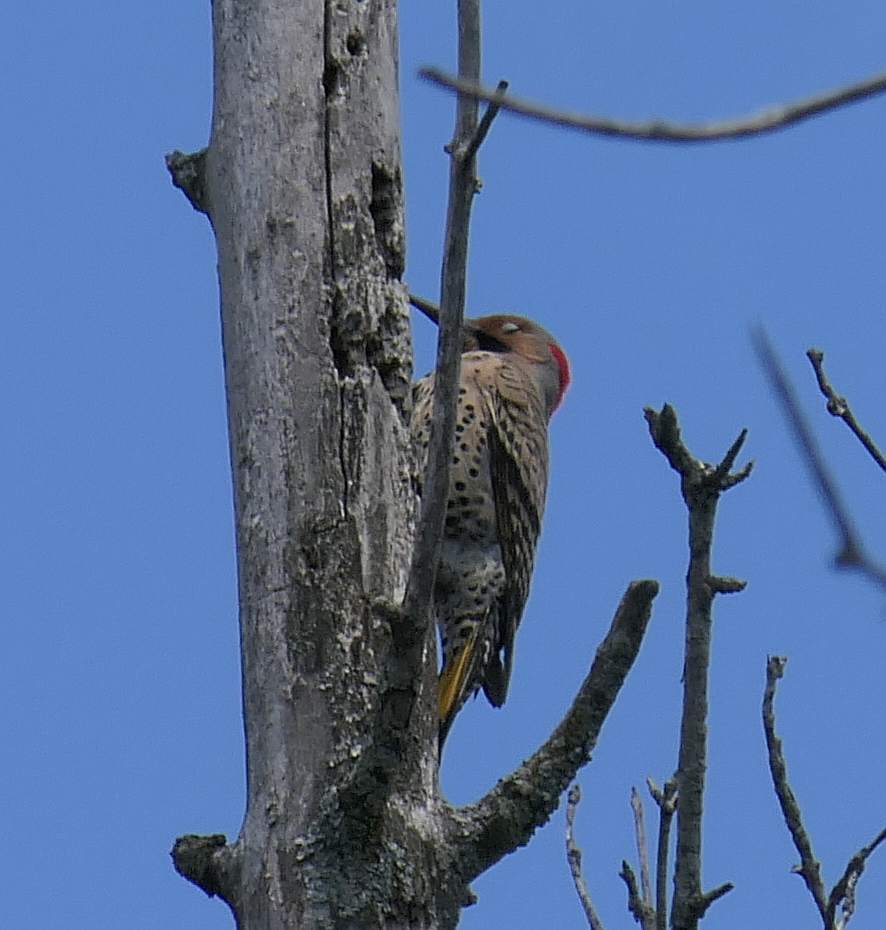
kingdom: Animalia
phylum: Chordata
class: Aves
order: Piciformes
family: Picidae
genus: Colaptes
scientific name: Colaptes auratus
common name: Northern flicker
